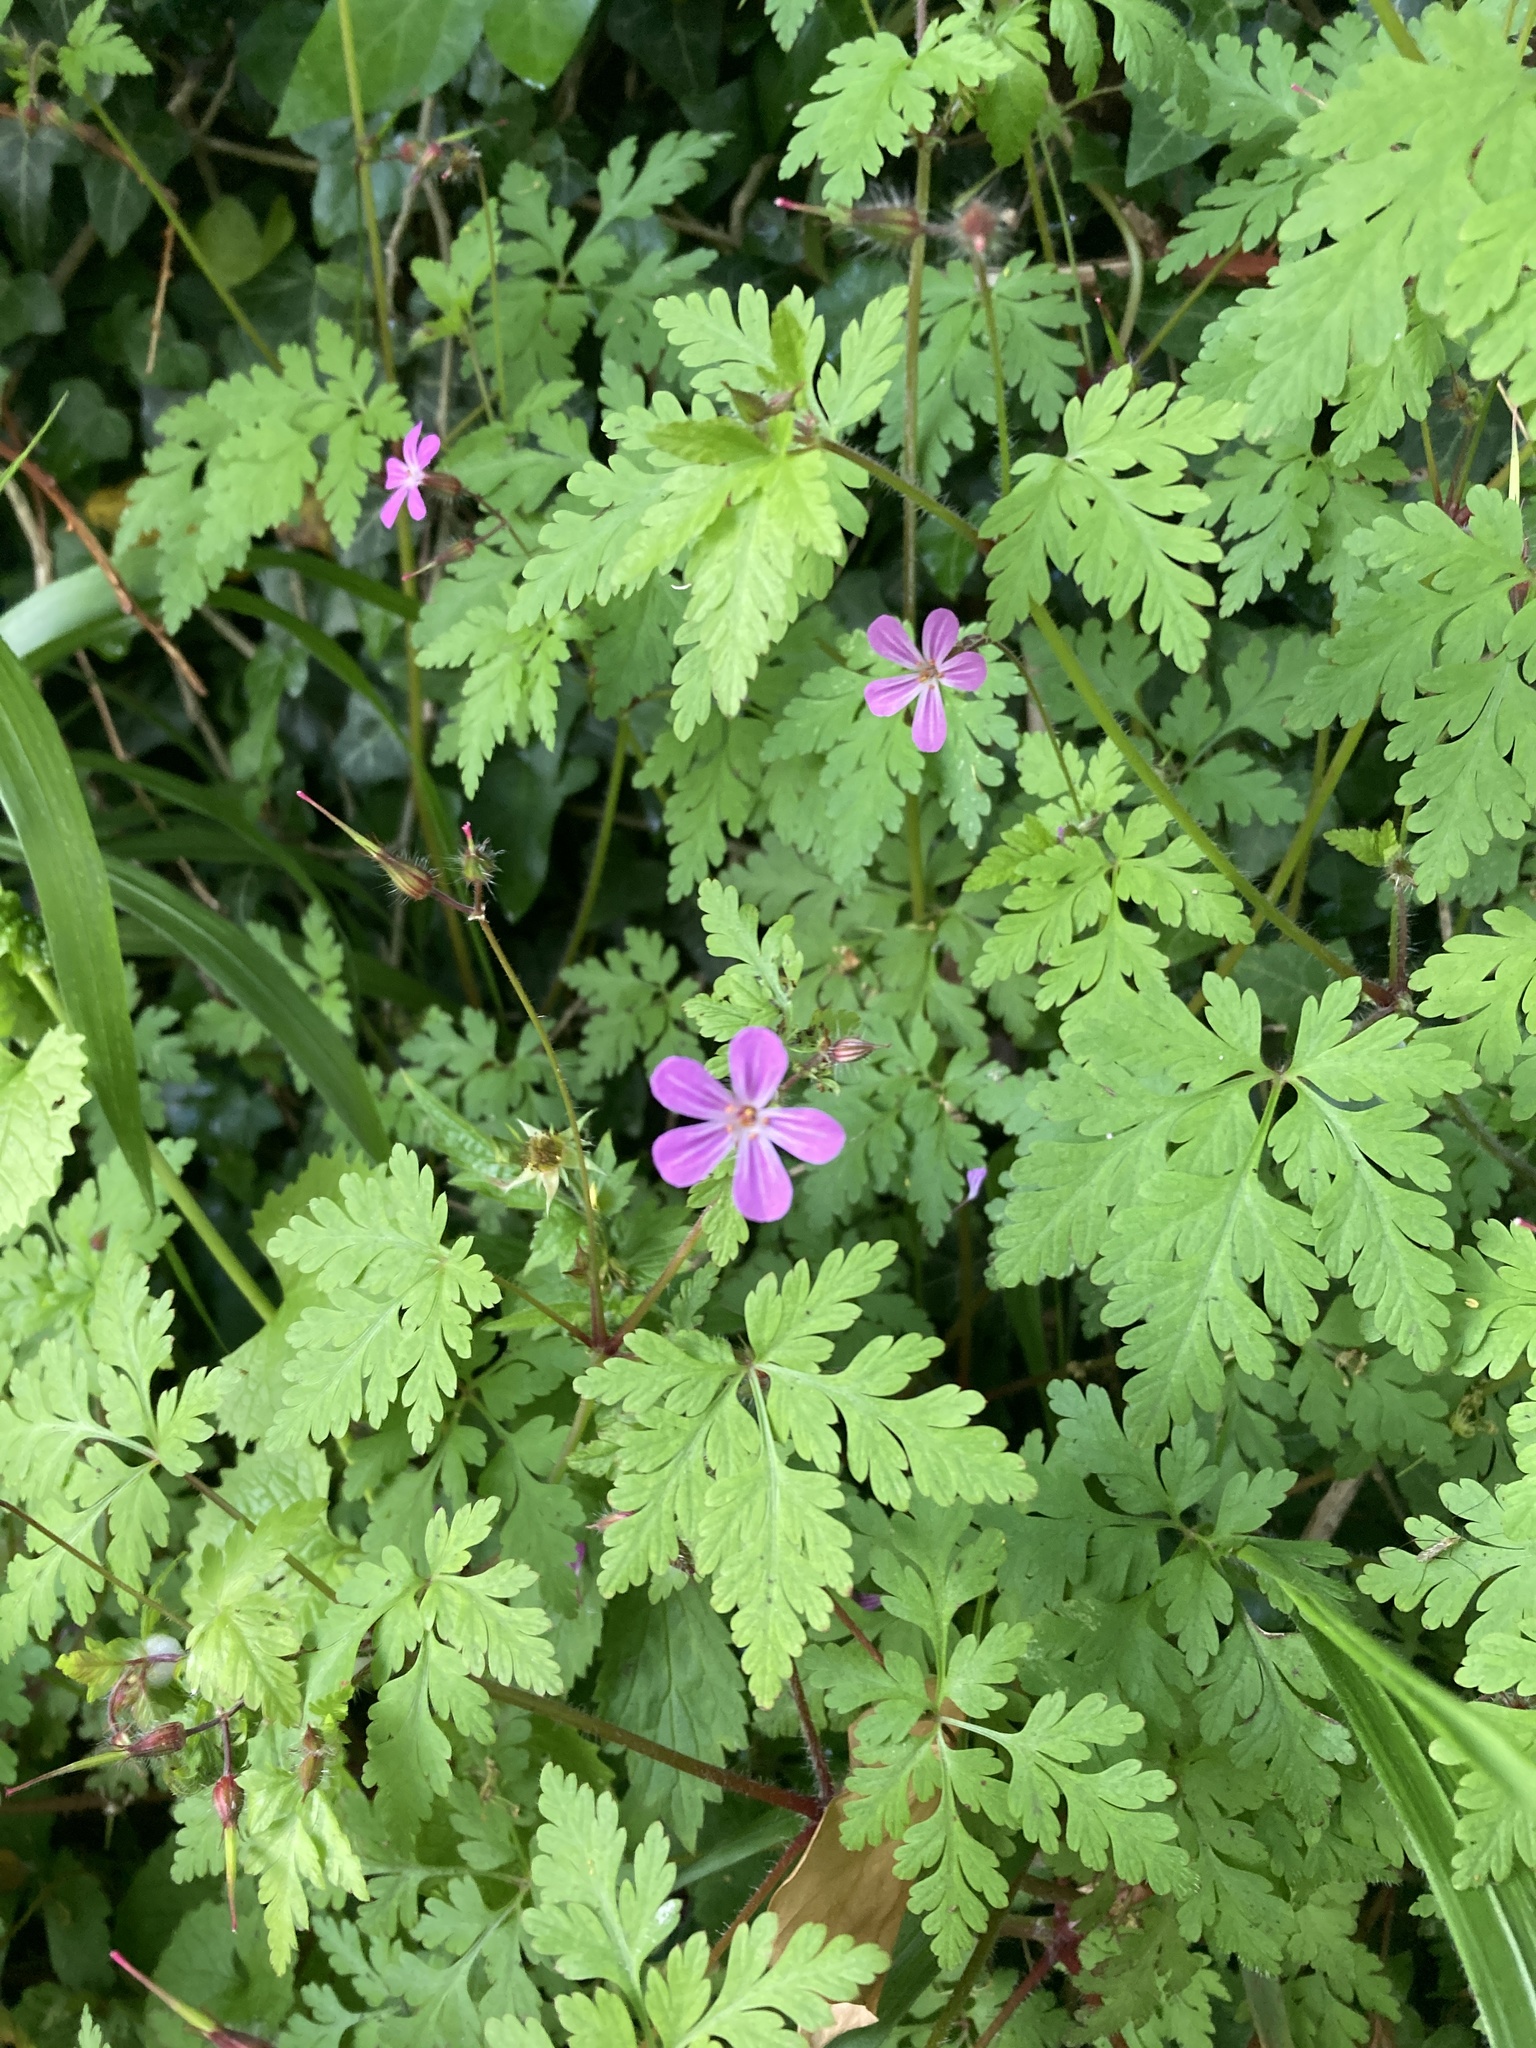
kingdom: Plantae
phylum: Tracheophyta
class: Magnoliopsida
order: Geraniales
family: Geraniaceae
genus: Geranium
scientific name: Geranium robertianum
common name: Herb-robert
